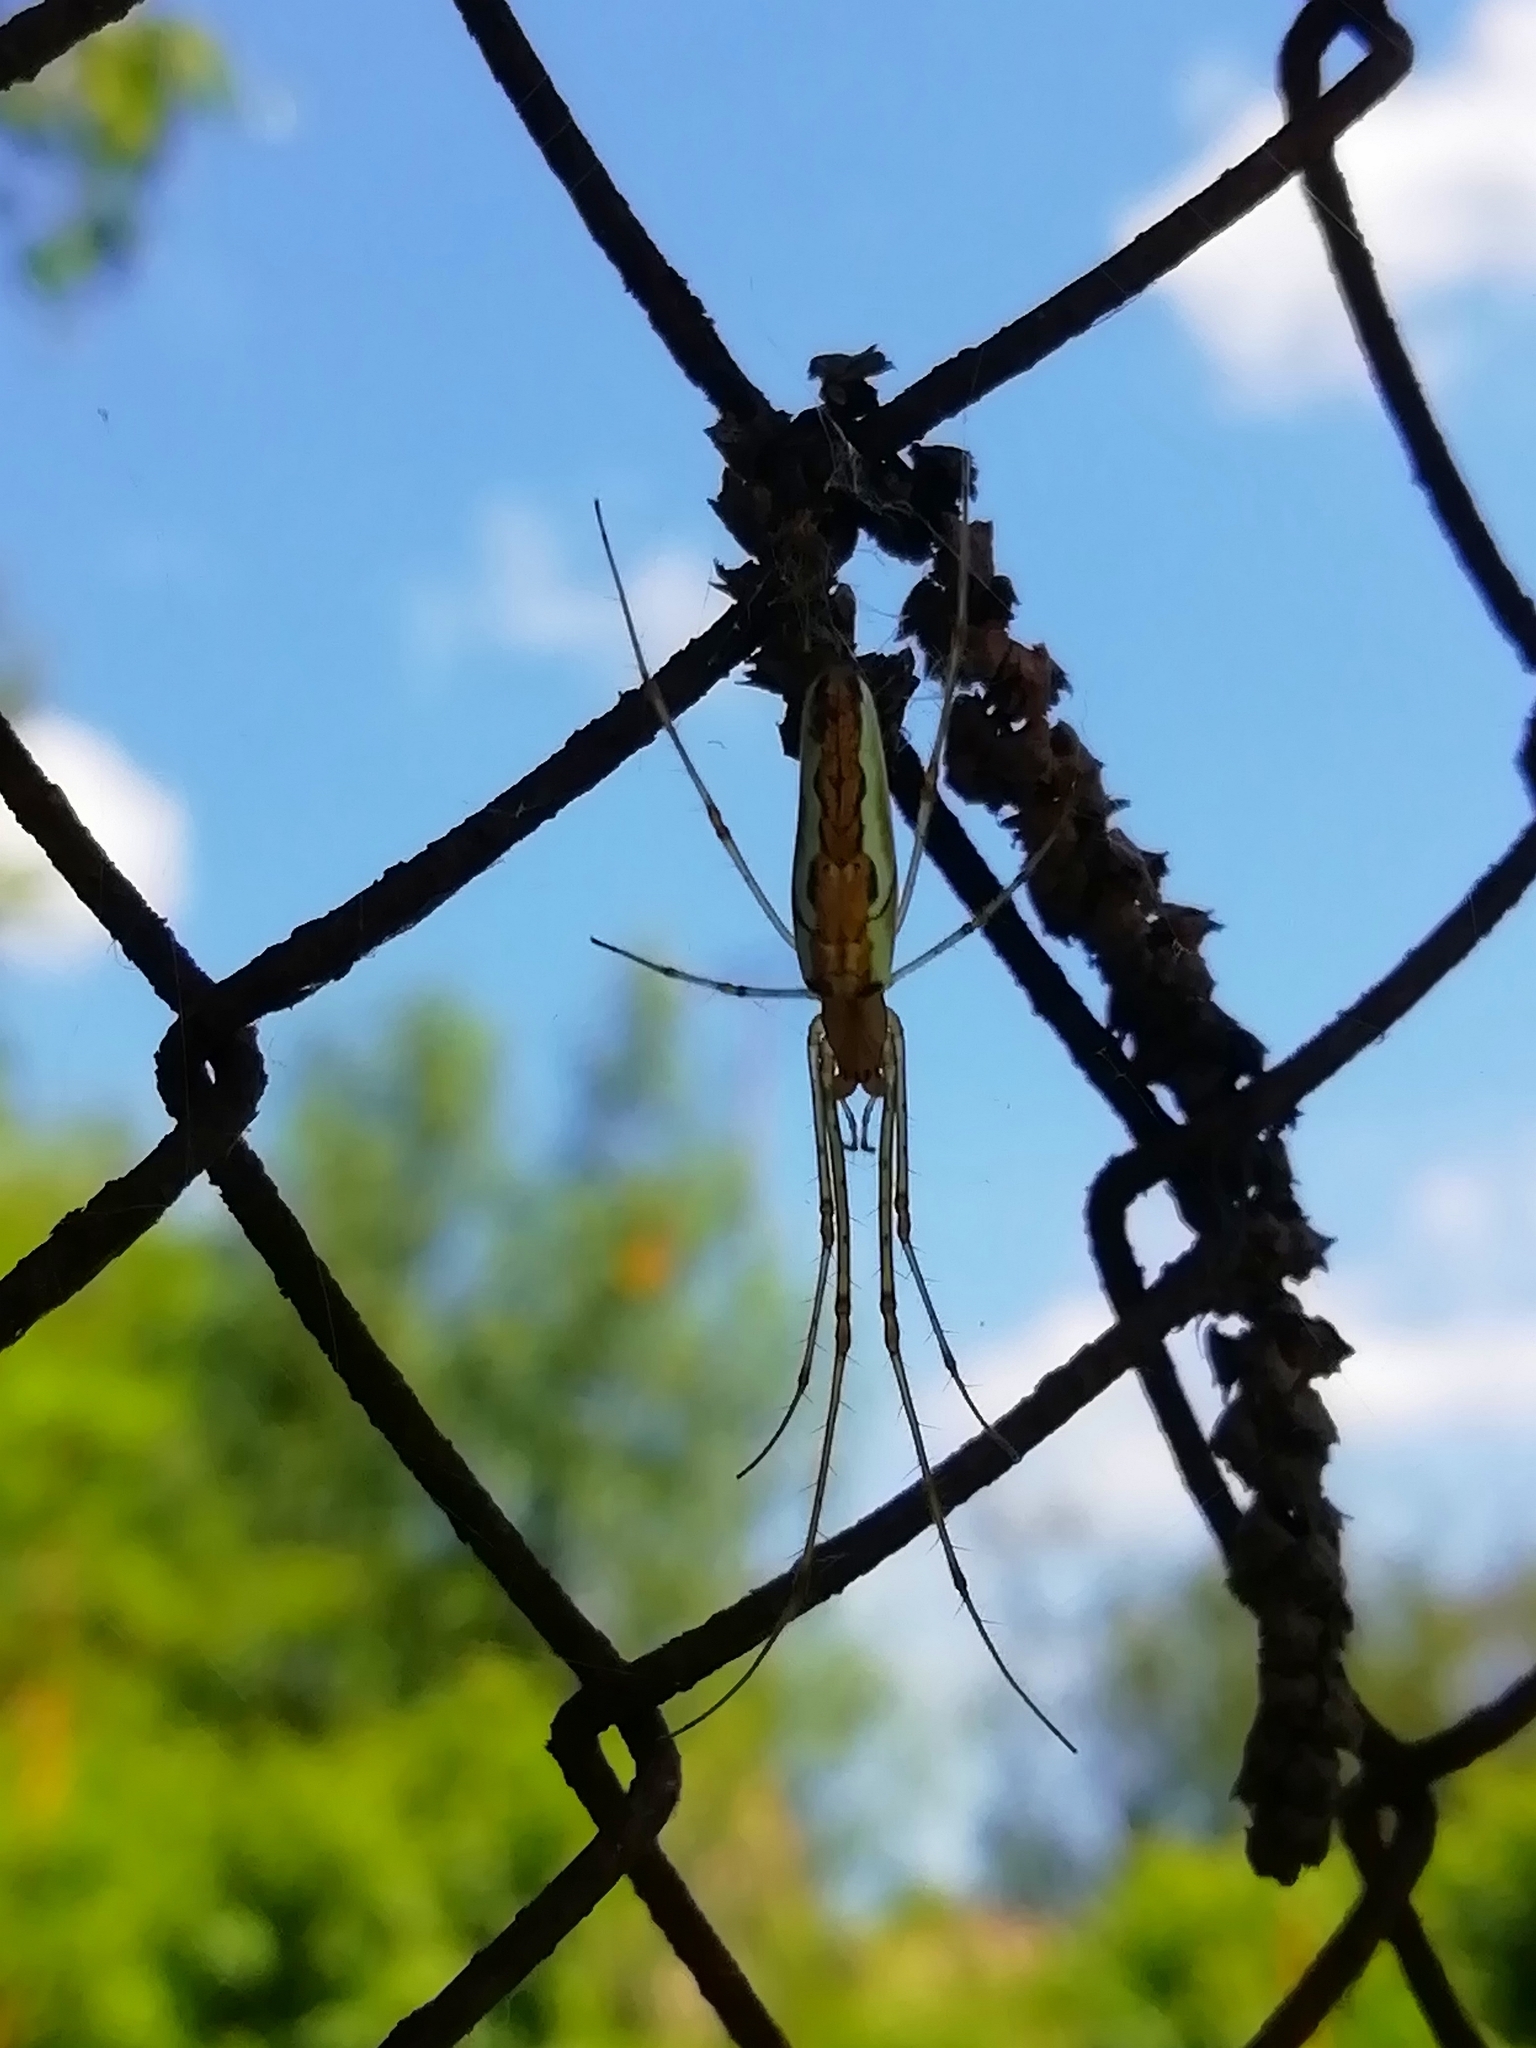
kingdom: Animalia
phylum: Arthropoda
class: Arachnida
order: Araneae
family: Tetragnathidae
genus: Tetragnatha
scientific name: Tetragnatha extensa
